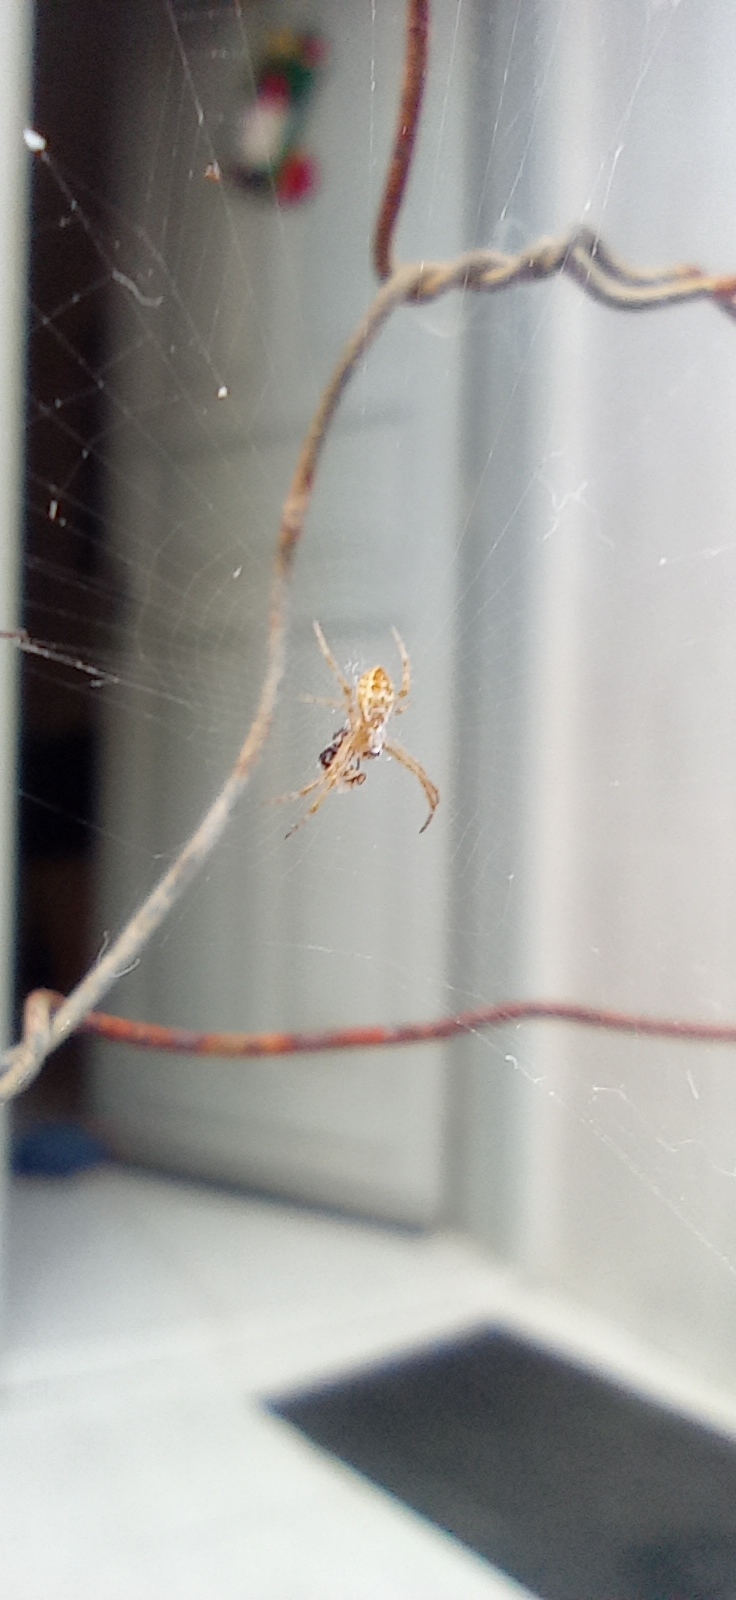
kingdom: Animalia
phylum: Arthropoda
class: Arachnida
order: Araneae
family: Araneidae
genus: Argiope
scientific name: Argiope argentata
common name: Orb weavers
